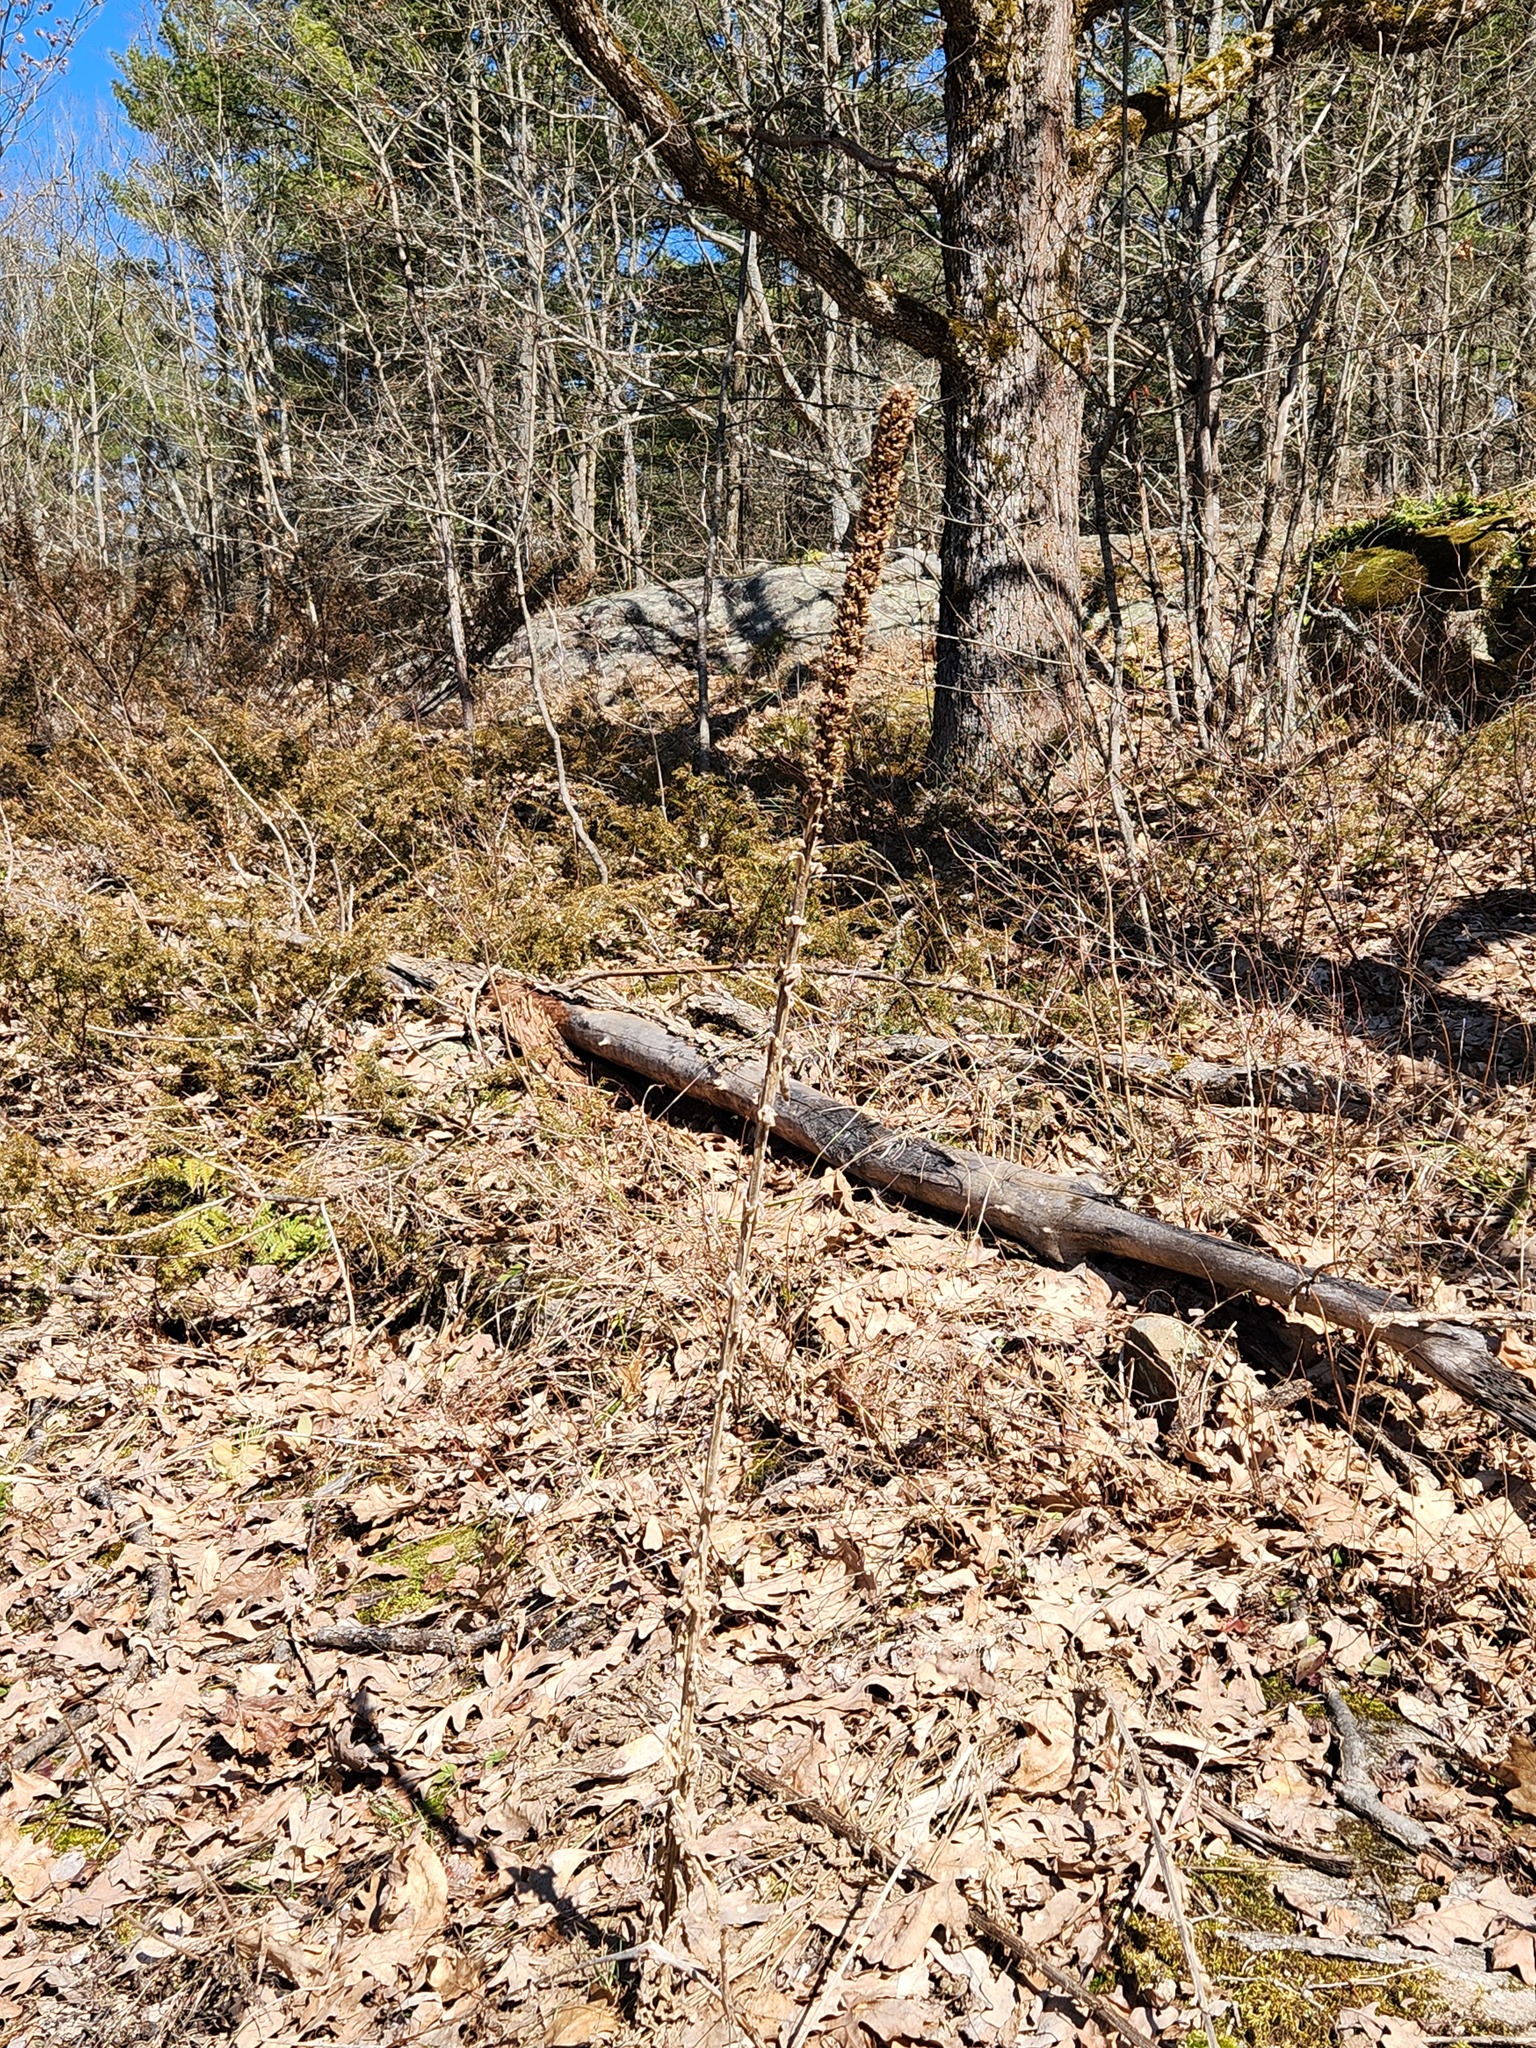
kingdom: Plantae
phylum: Tracheophyta
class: Magnoliopsida
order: Lamiales
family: Scrophulariaceae
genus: Verbascum
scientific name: Verbascum thapsus
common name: Common mullein
